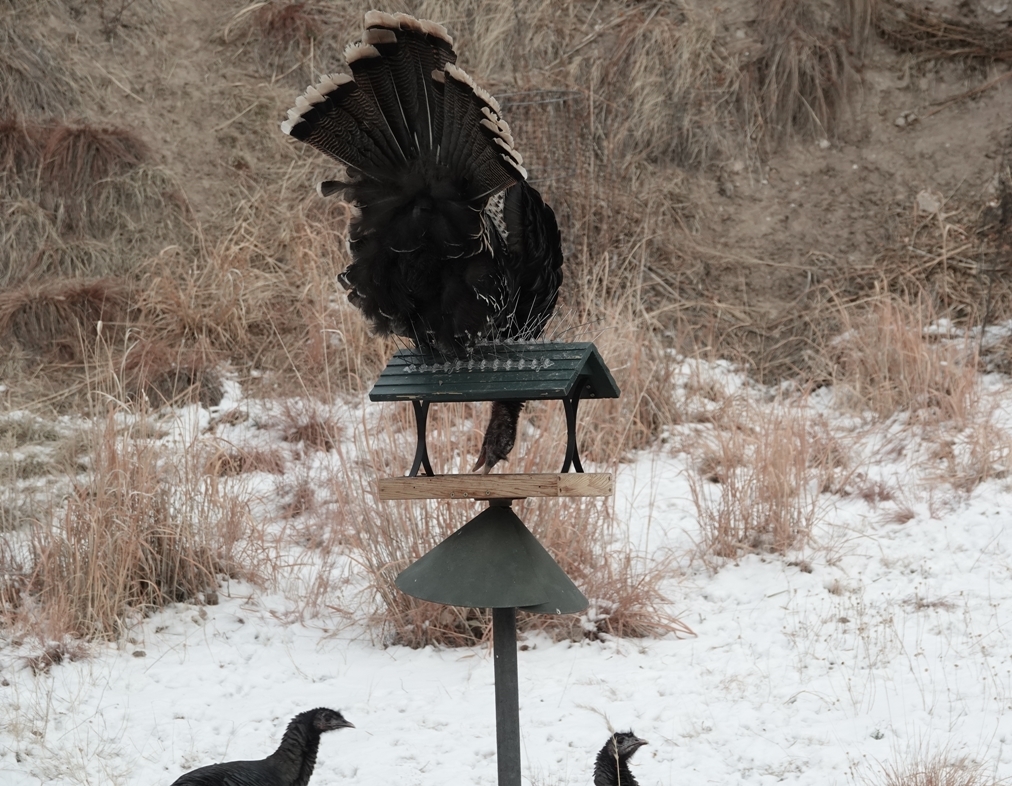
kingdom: Animalia
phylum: Chordata
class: Aves
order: Galliformes
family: Phasianidae
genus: Meleagris
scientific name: Meleagris gallopavo
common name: Wild turkey
